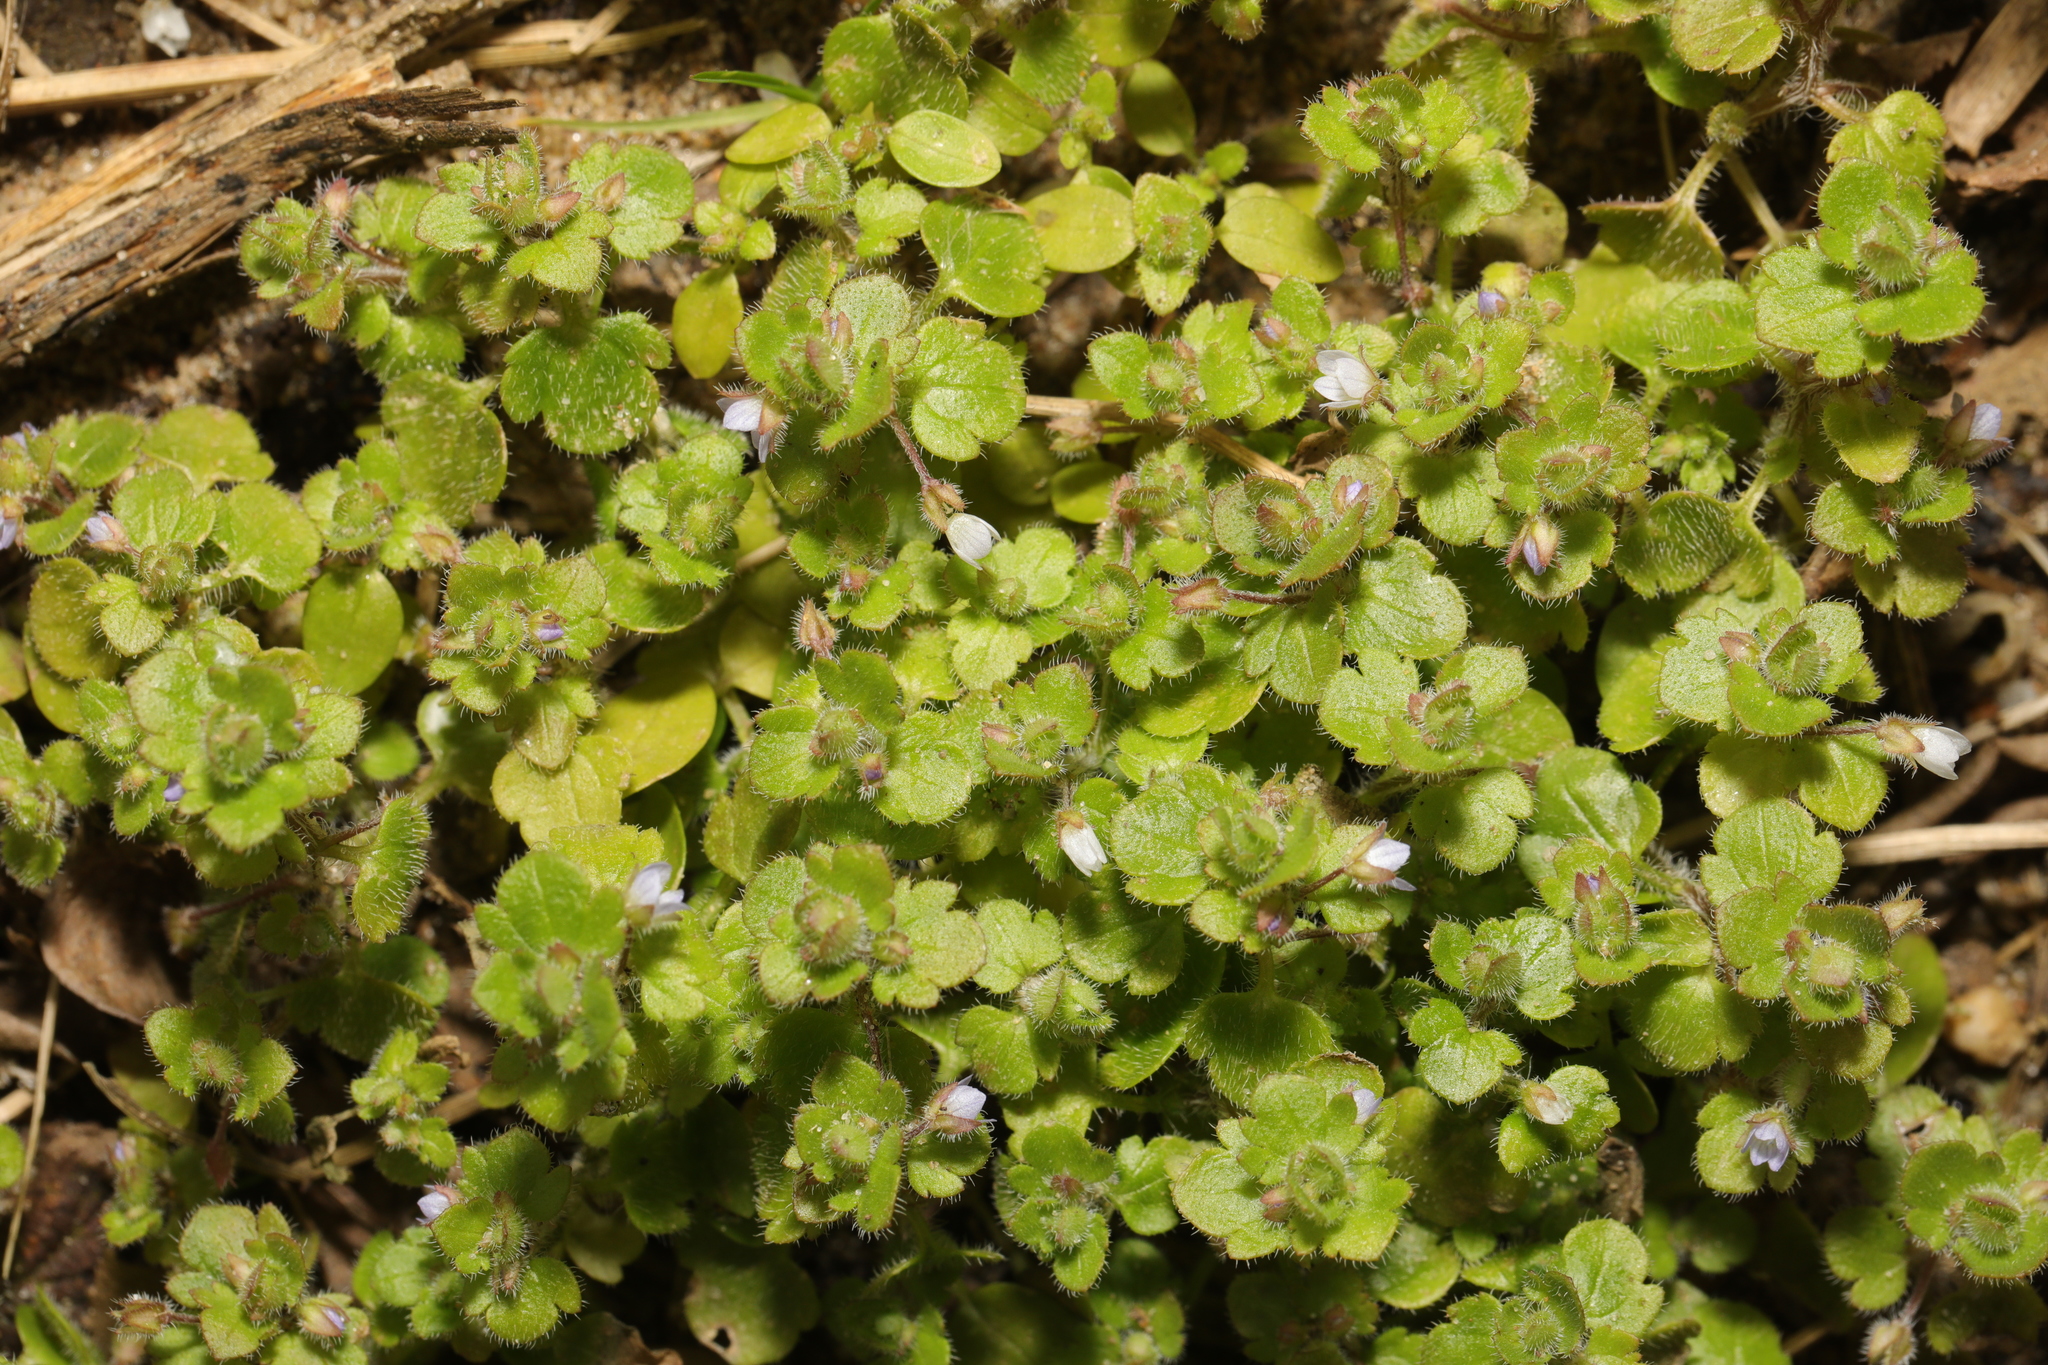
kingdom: Plantae
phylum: Tracheophyta
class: Magnoliopsida
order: Lamiales
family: Plantaginaceae
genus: Veronica
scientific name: Veronica hederifolia
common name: Ivy-leaved speedwell
